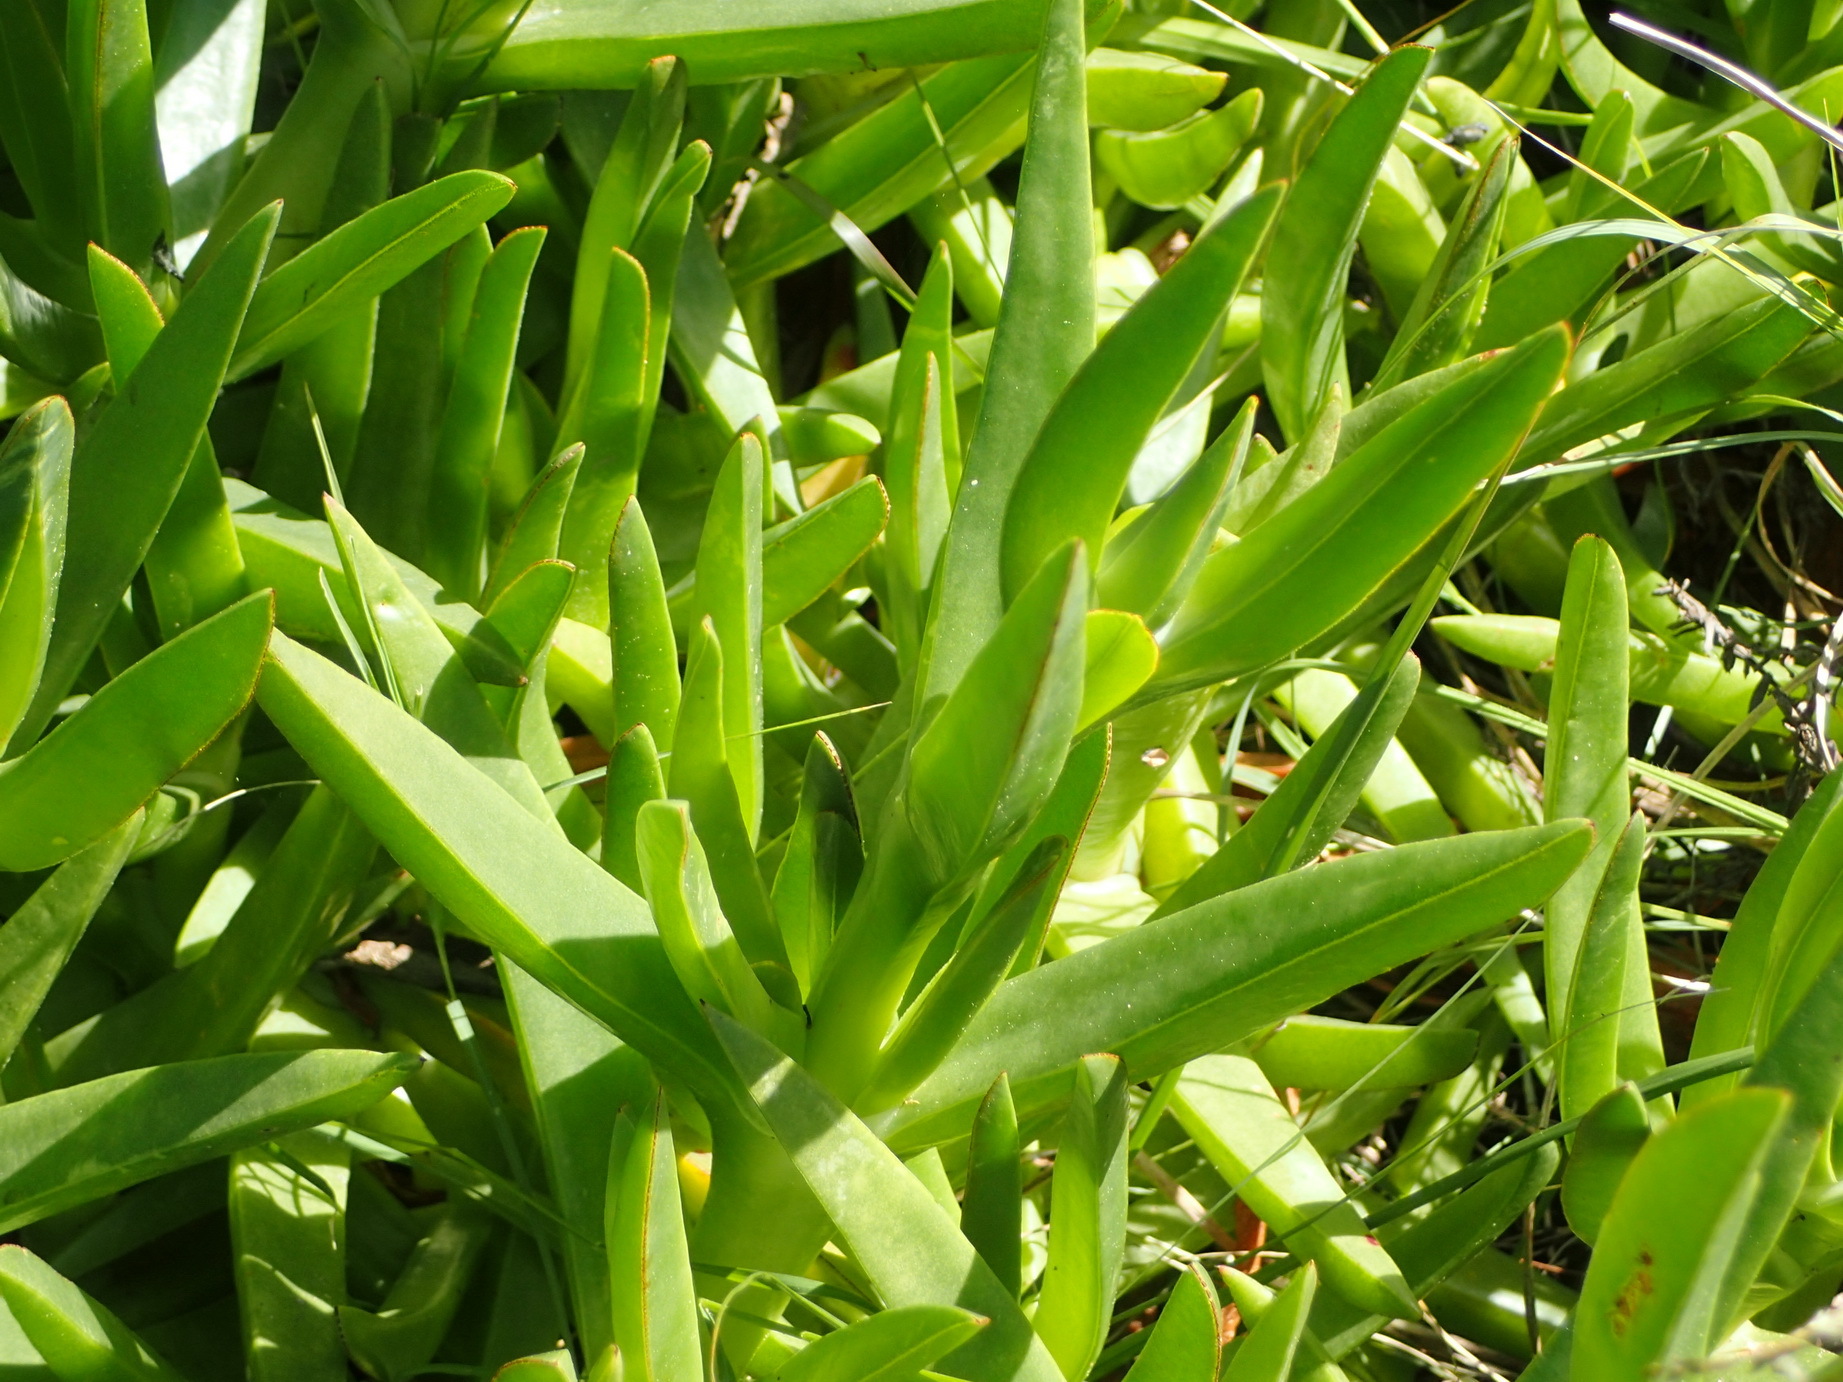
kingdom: Plantae
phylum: Tracheophyta
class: Magnoliopsida
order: Caryophyllales
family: Aizoaceae
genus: Carpobrotus
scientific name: Carpobrotus edulis
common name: Hottentot-fig
